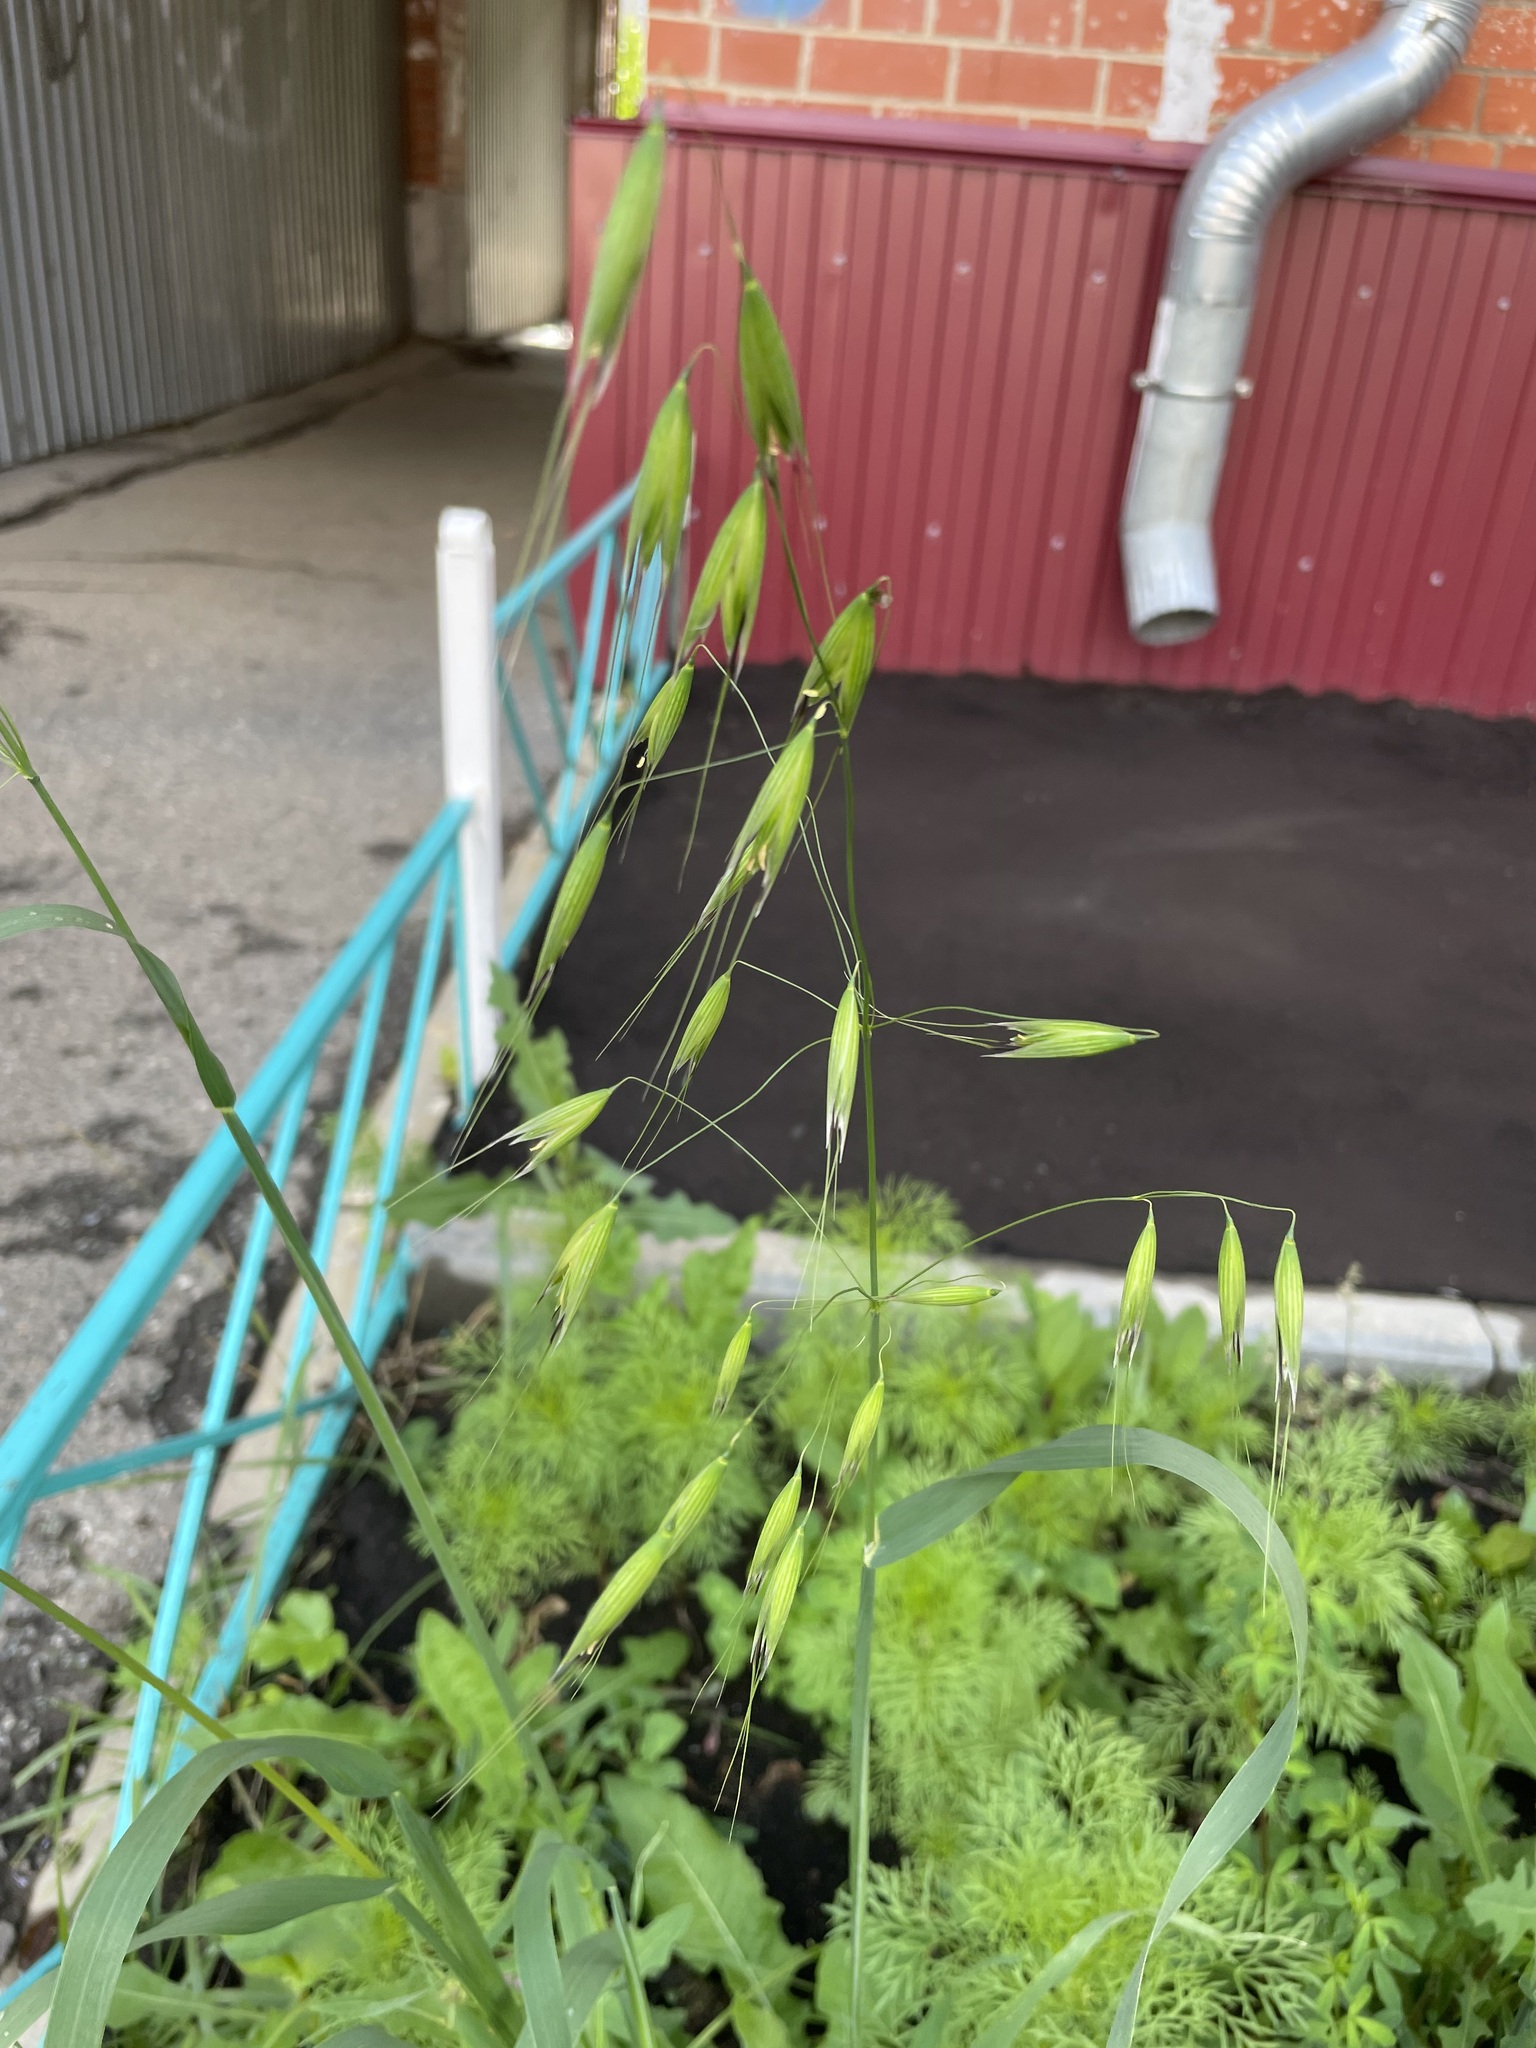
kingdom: Plantae
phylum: Tracheophyta
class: Liliopsida
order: Poales
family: Poaceae
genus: Avena
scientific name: Avena fatua
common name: Wild oat
